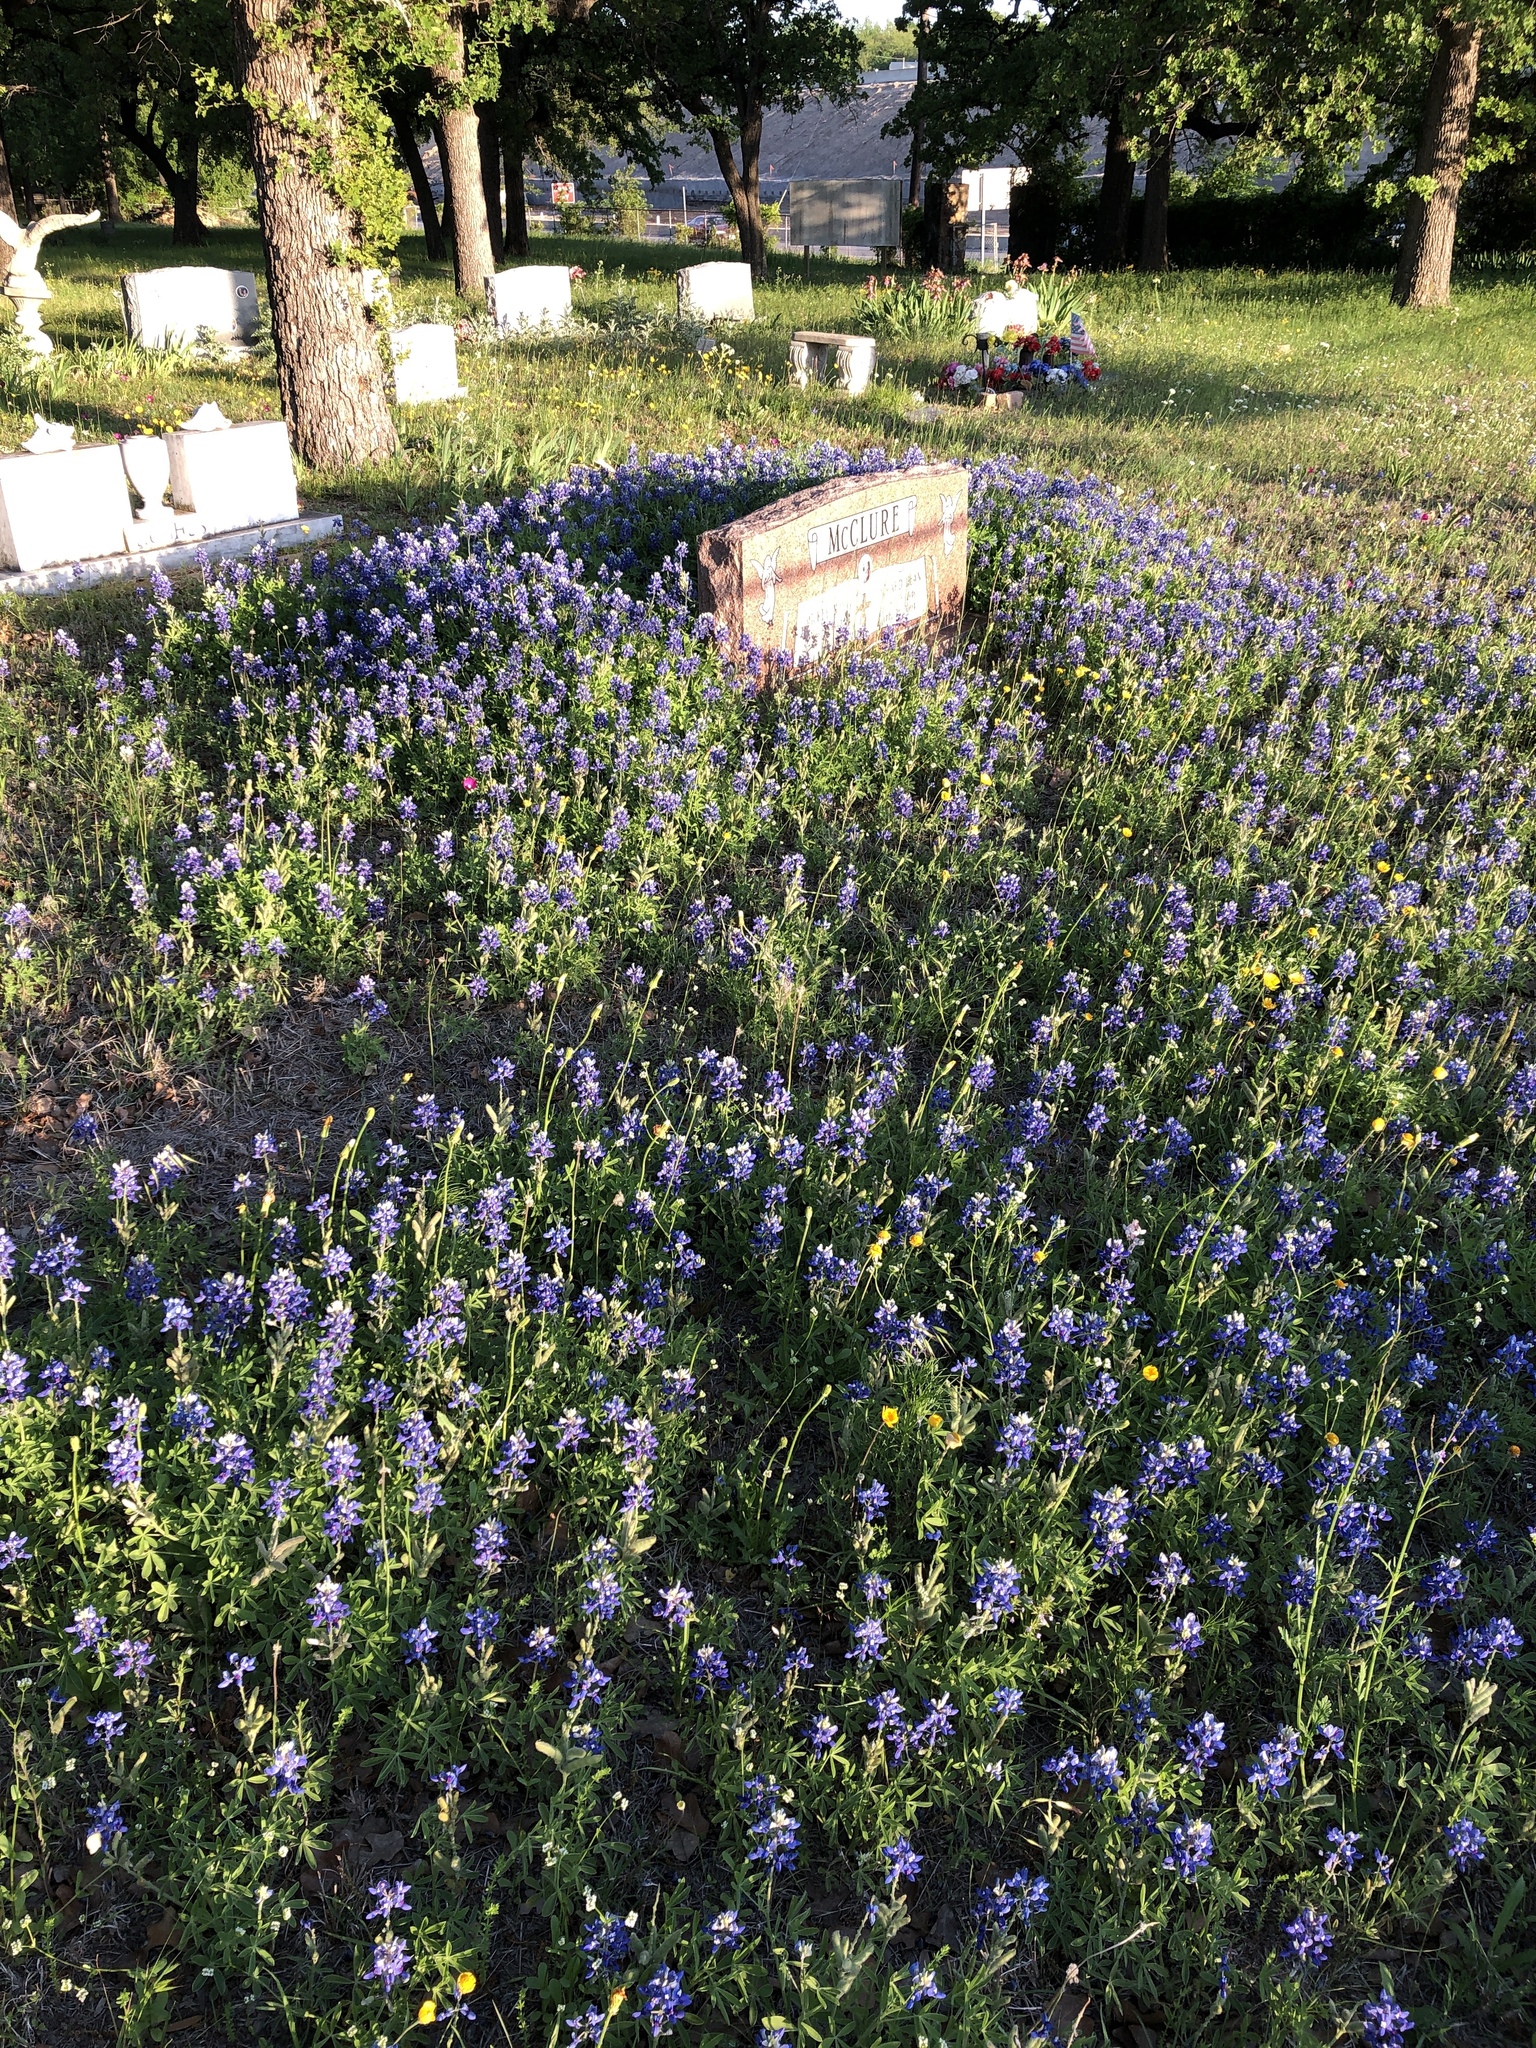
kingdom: Plantae
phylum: Tracheophyta
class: Magnoliopsida
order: Fabales
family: Fabaceae
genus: Lupinus
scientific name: Lupinus texensis
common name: Texas bluebonnet
